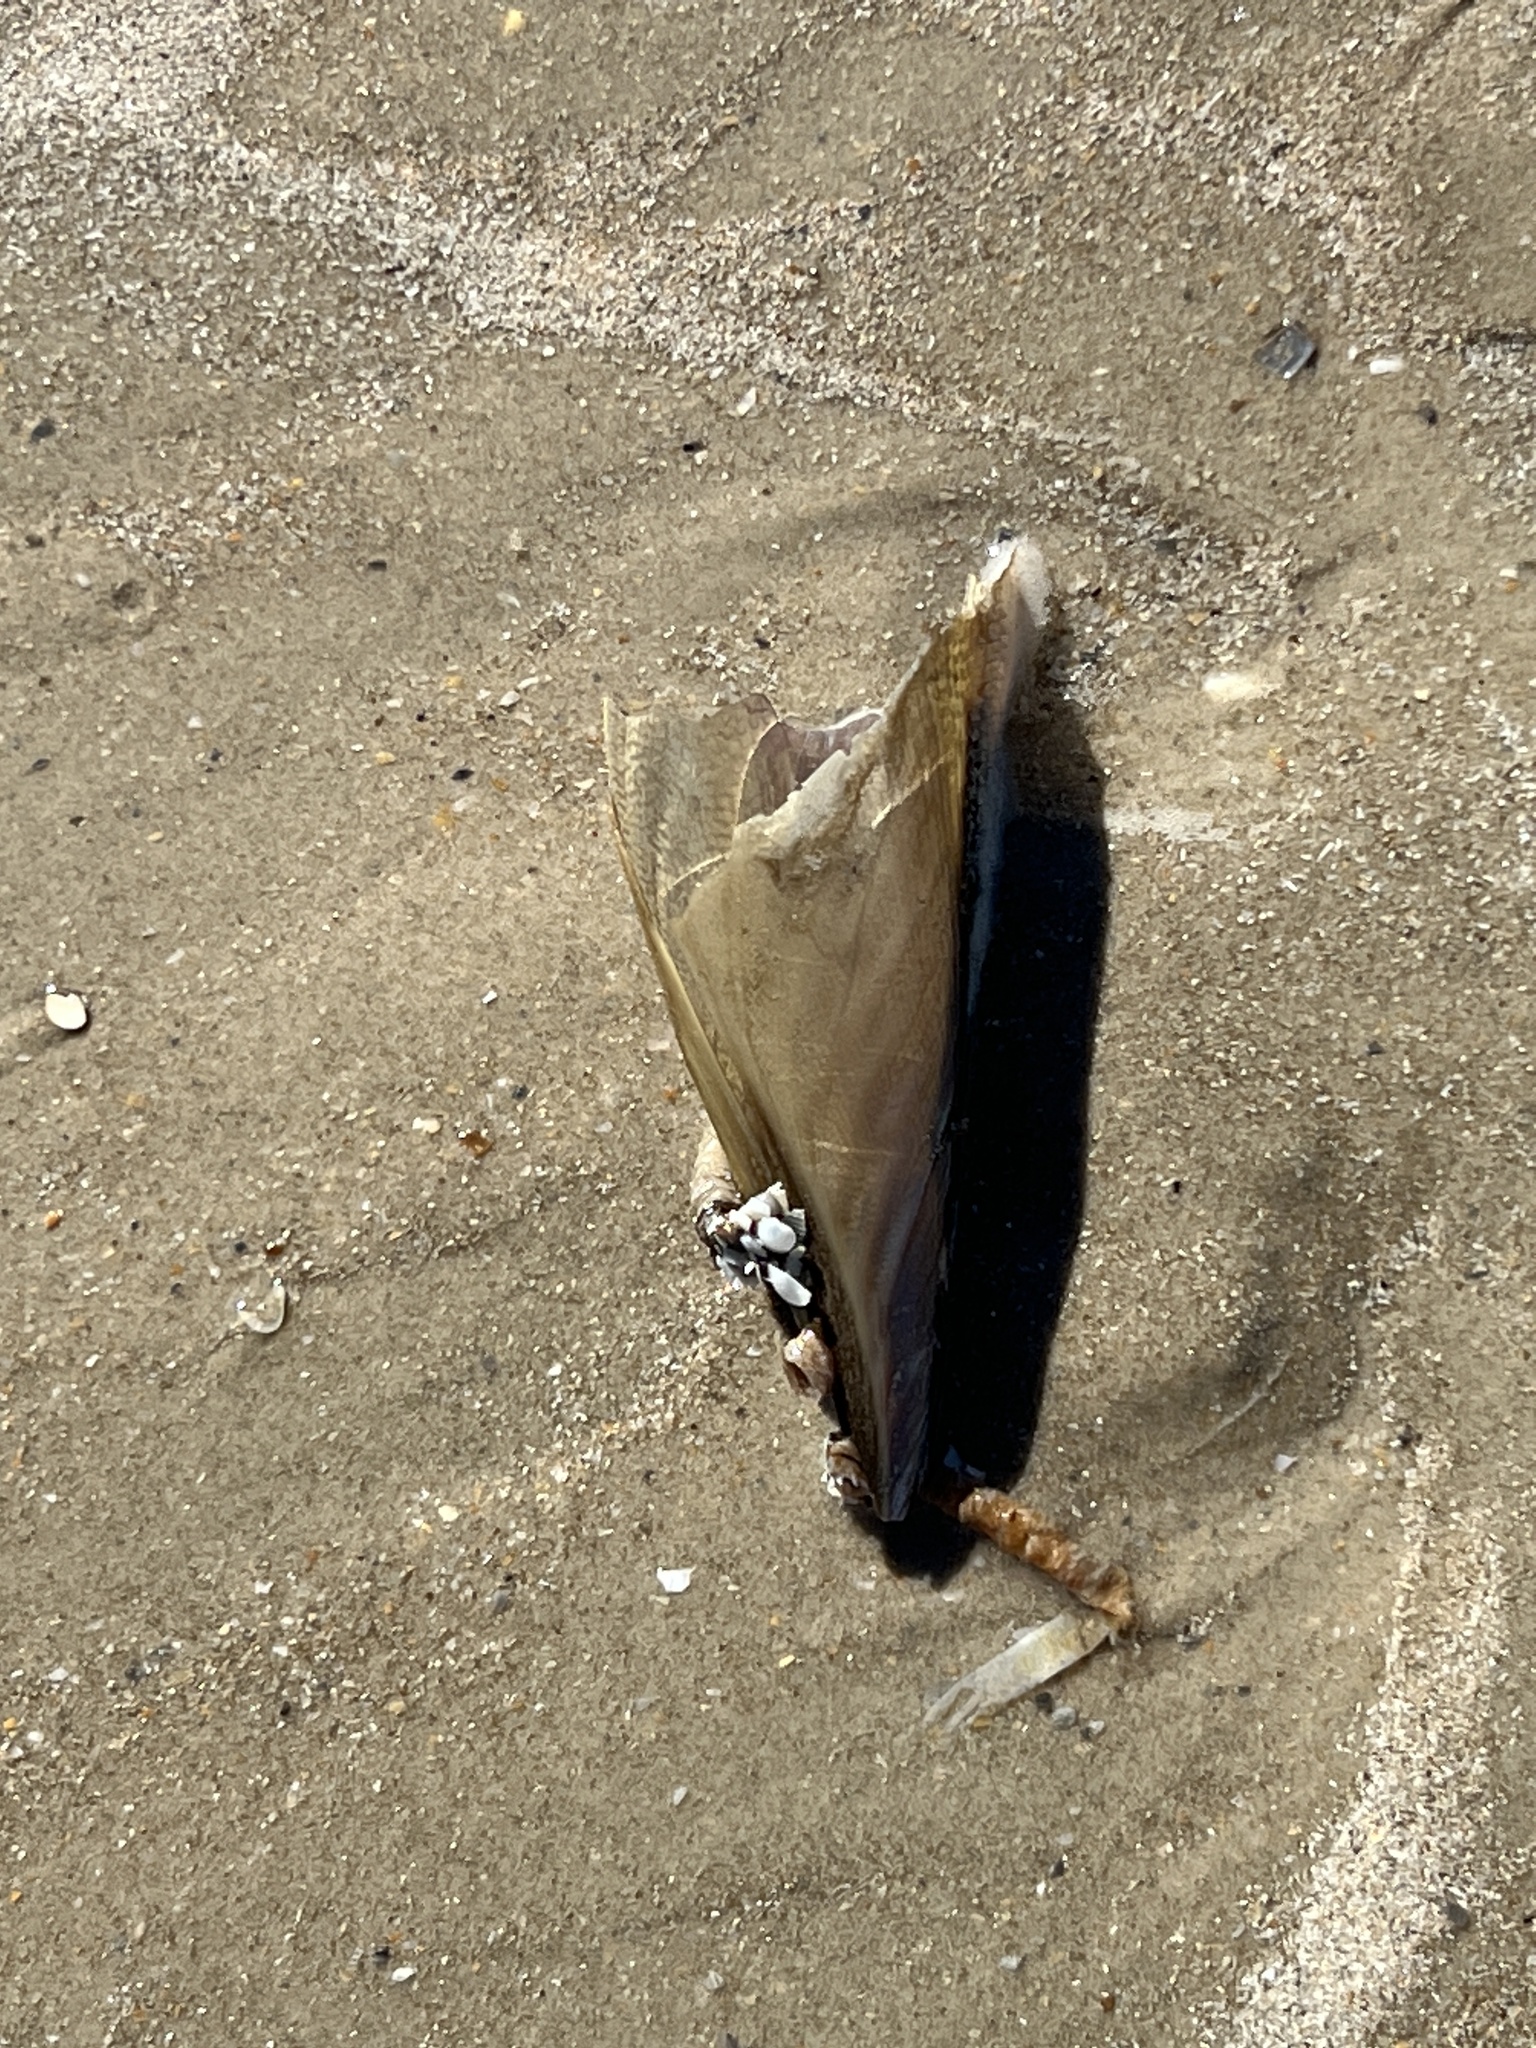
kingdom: Animalia
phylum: Mollusca
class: Bivalvia
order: Ostreida
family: Pinnidae
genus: Atrina
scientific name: Atrina serrata
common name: Saw-toothed penshell
